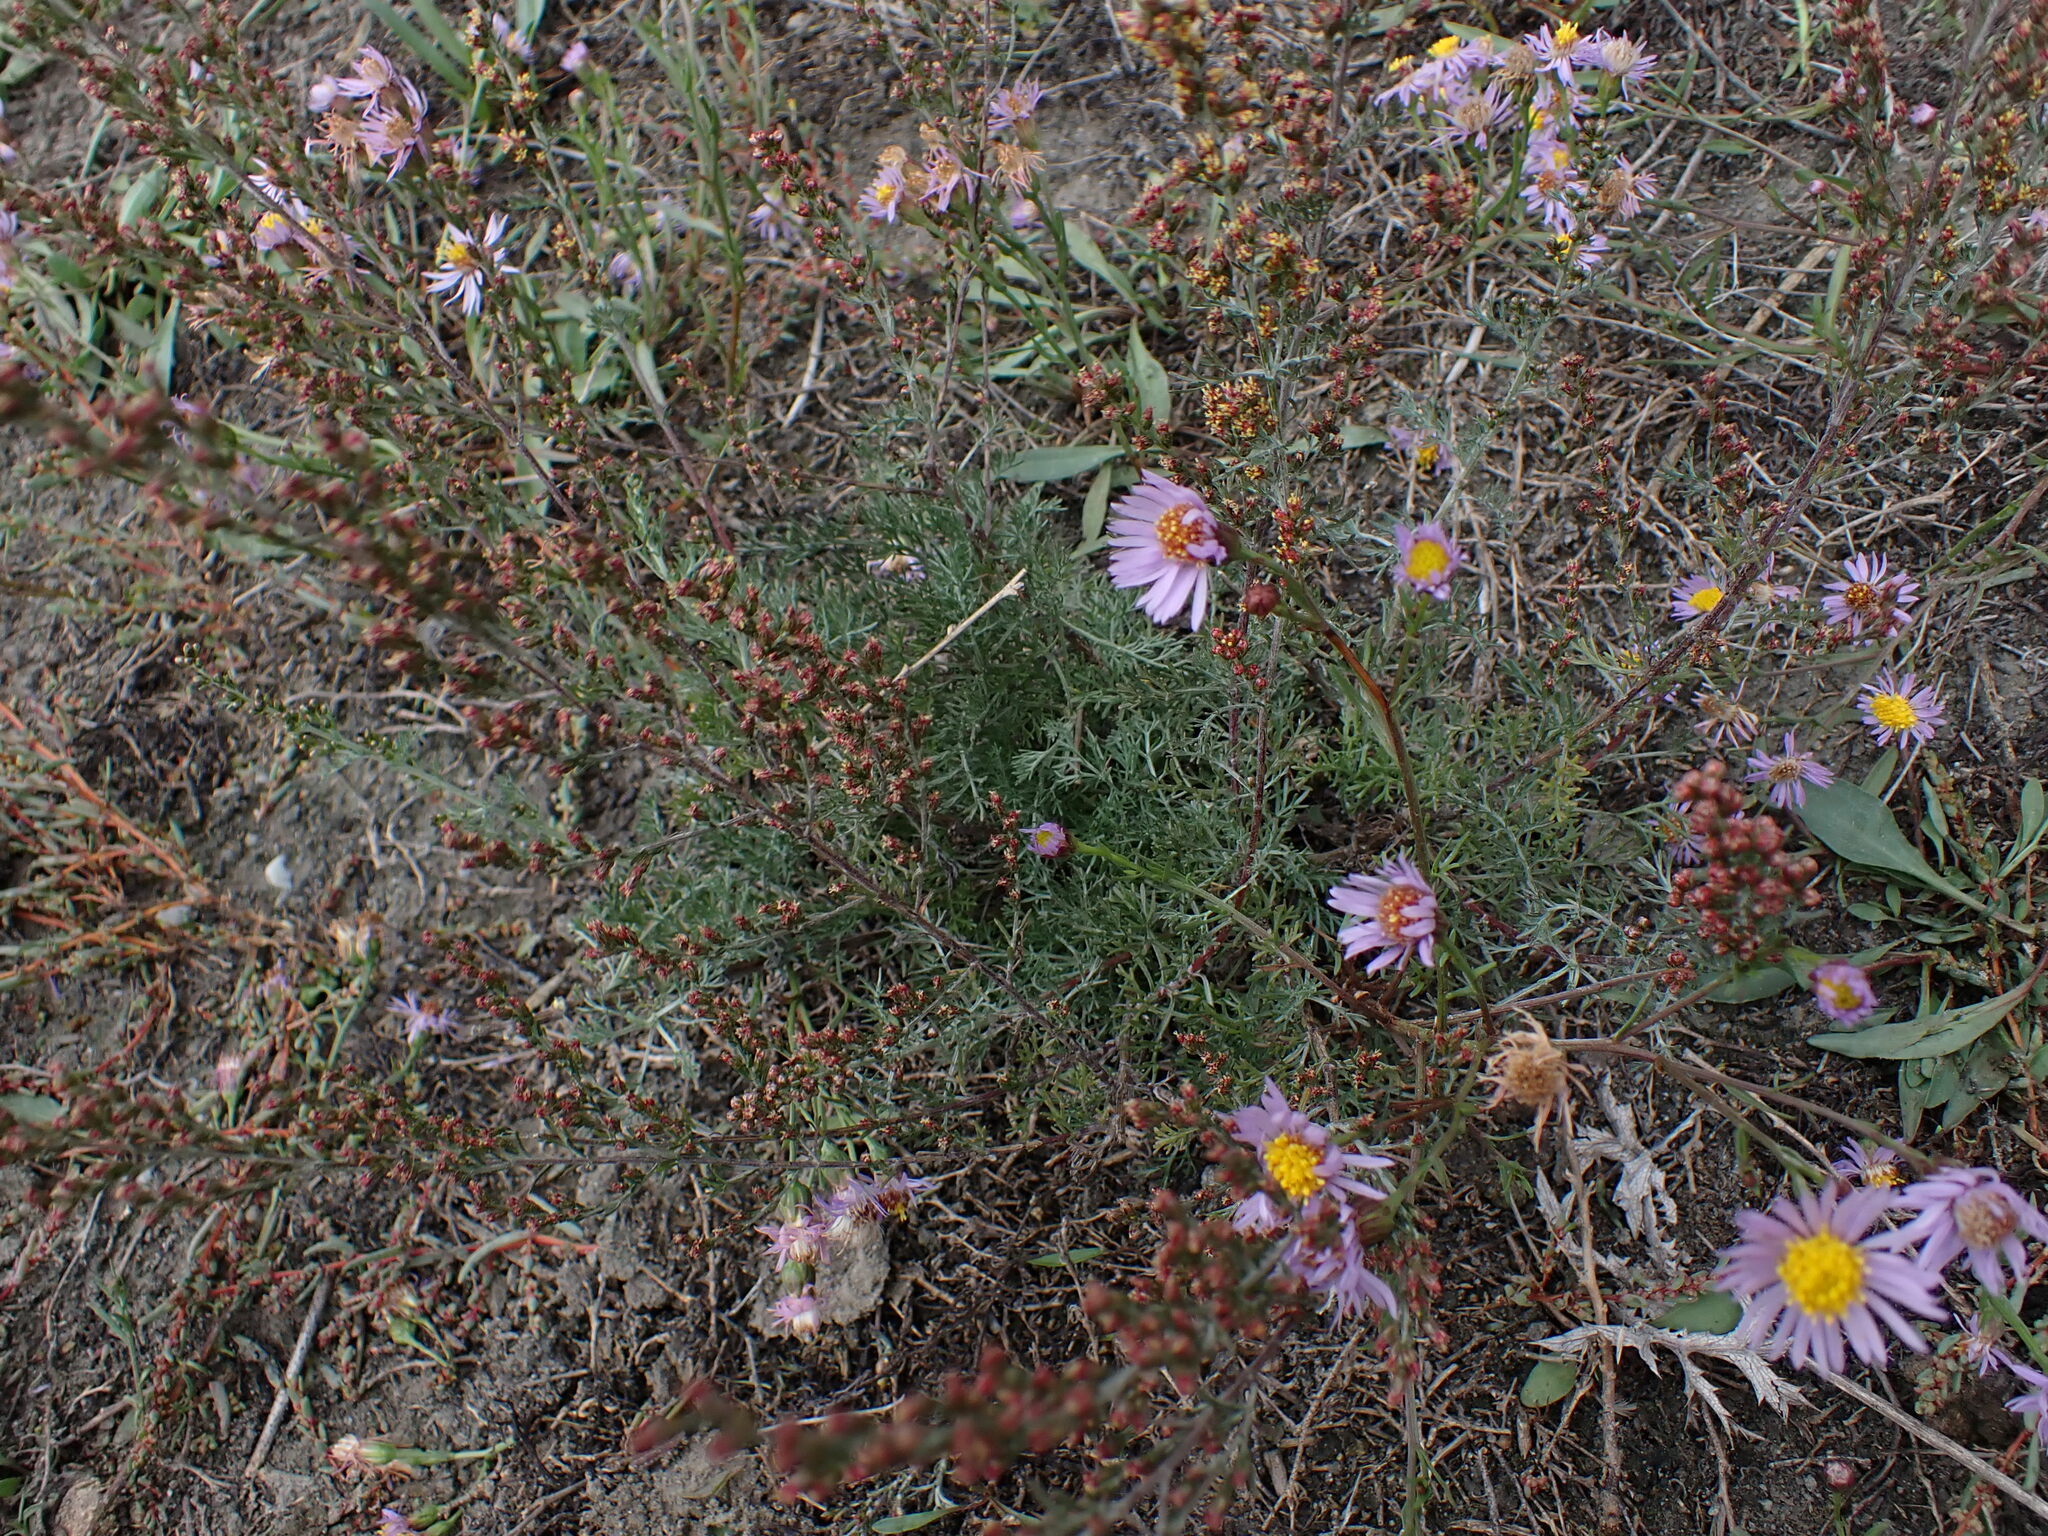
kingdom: Plantae
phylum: Tracheophyta
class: Magnoliopsida
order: Asterales
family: Asteraceae
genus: Artemisia
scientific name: Artemisia santonicum
